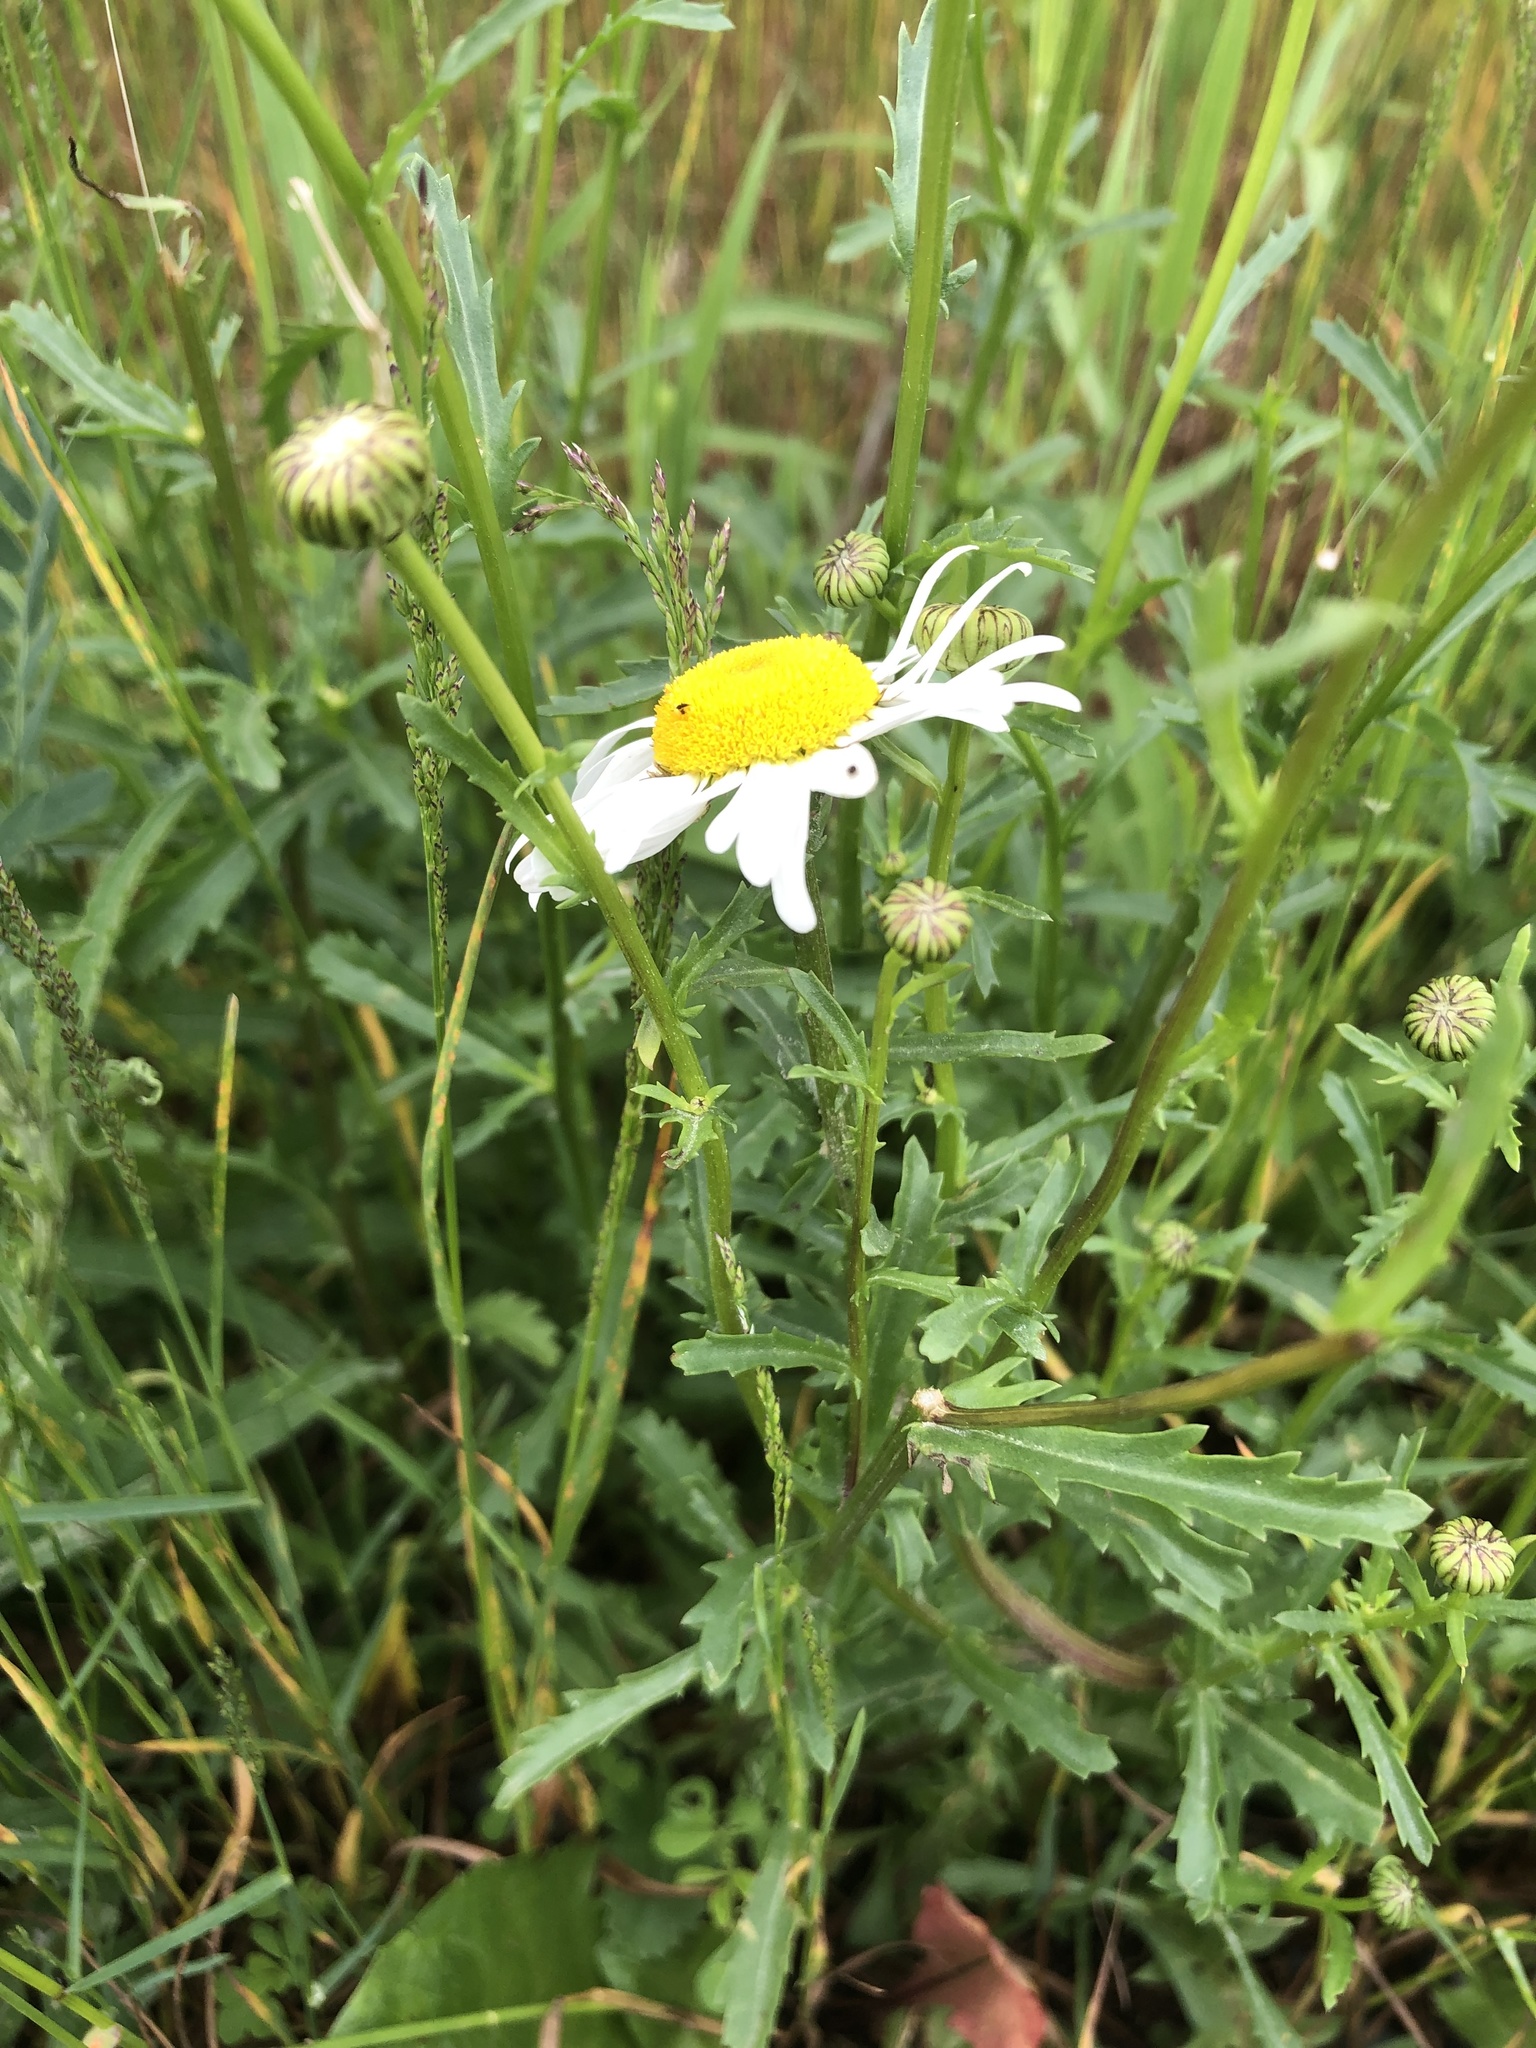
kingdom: Plantae
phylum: Tracheophyta
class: Magnoliopsida
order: Asterales
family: Asteraceae
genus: Leucanthemum
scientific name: Leucanthemum vulgare
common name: Oxeye daisy
